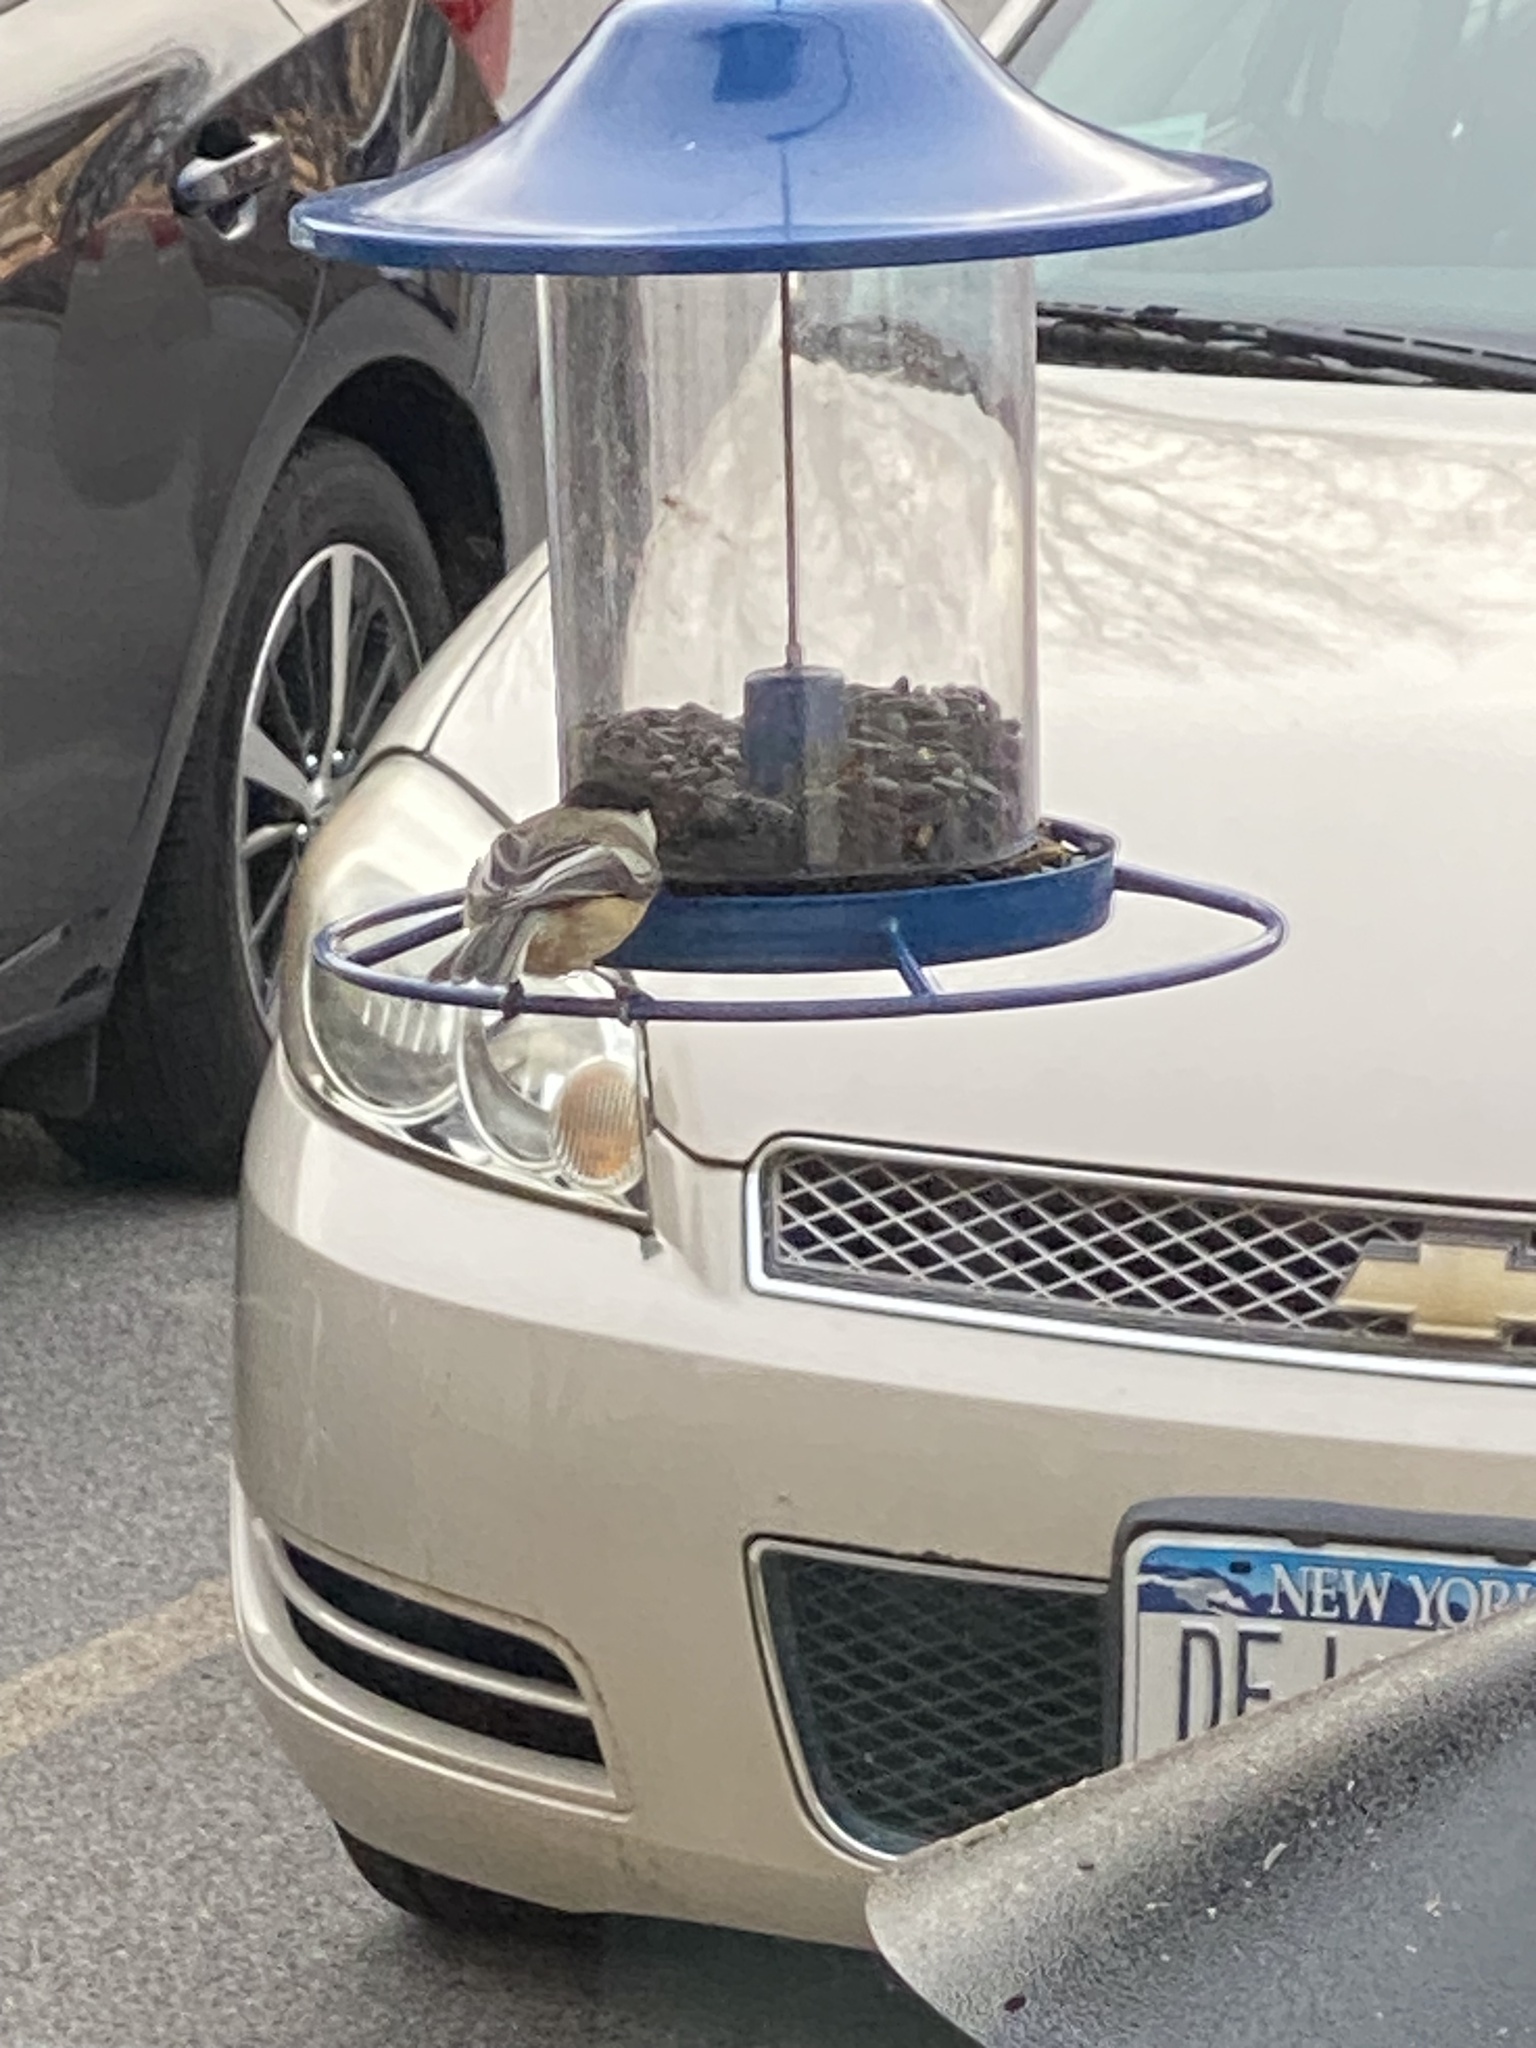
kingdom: Animalia
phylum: Chordata
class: Aves
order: Passeriformes
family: Paridae
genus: Poecile
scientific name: Poecile atricapillus
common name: Black-capped chickadee
